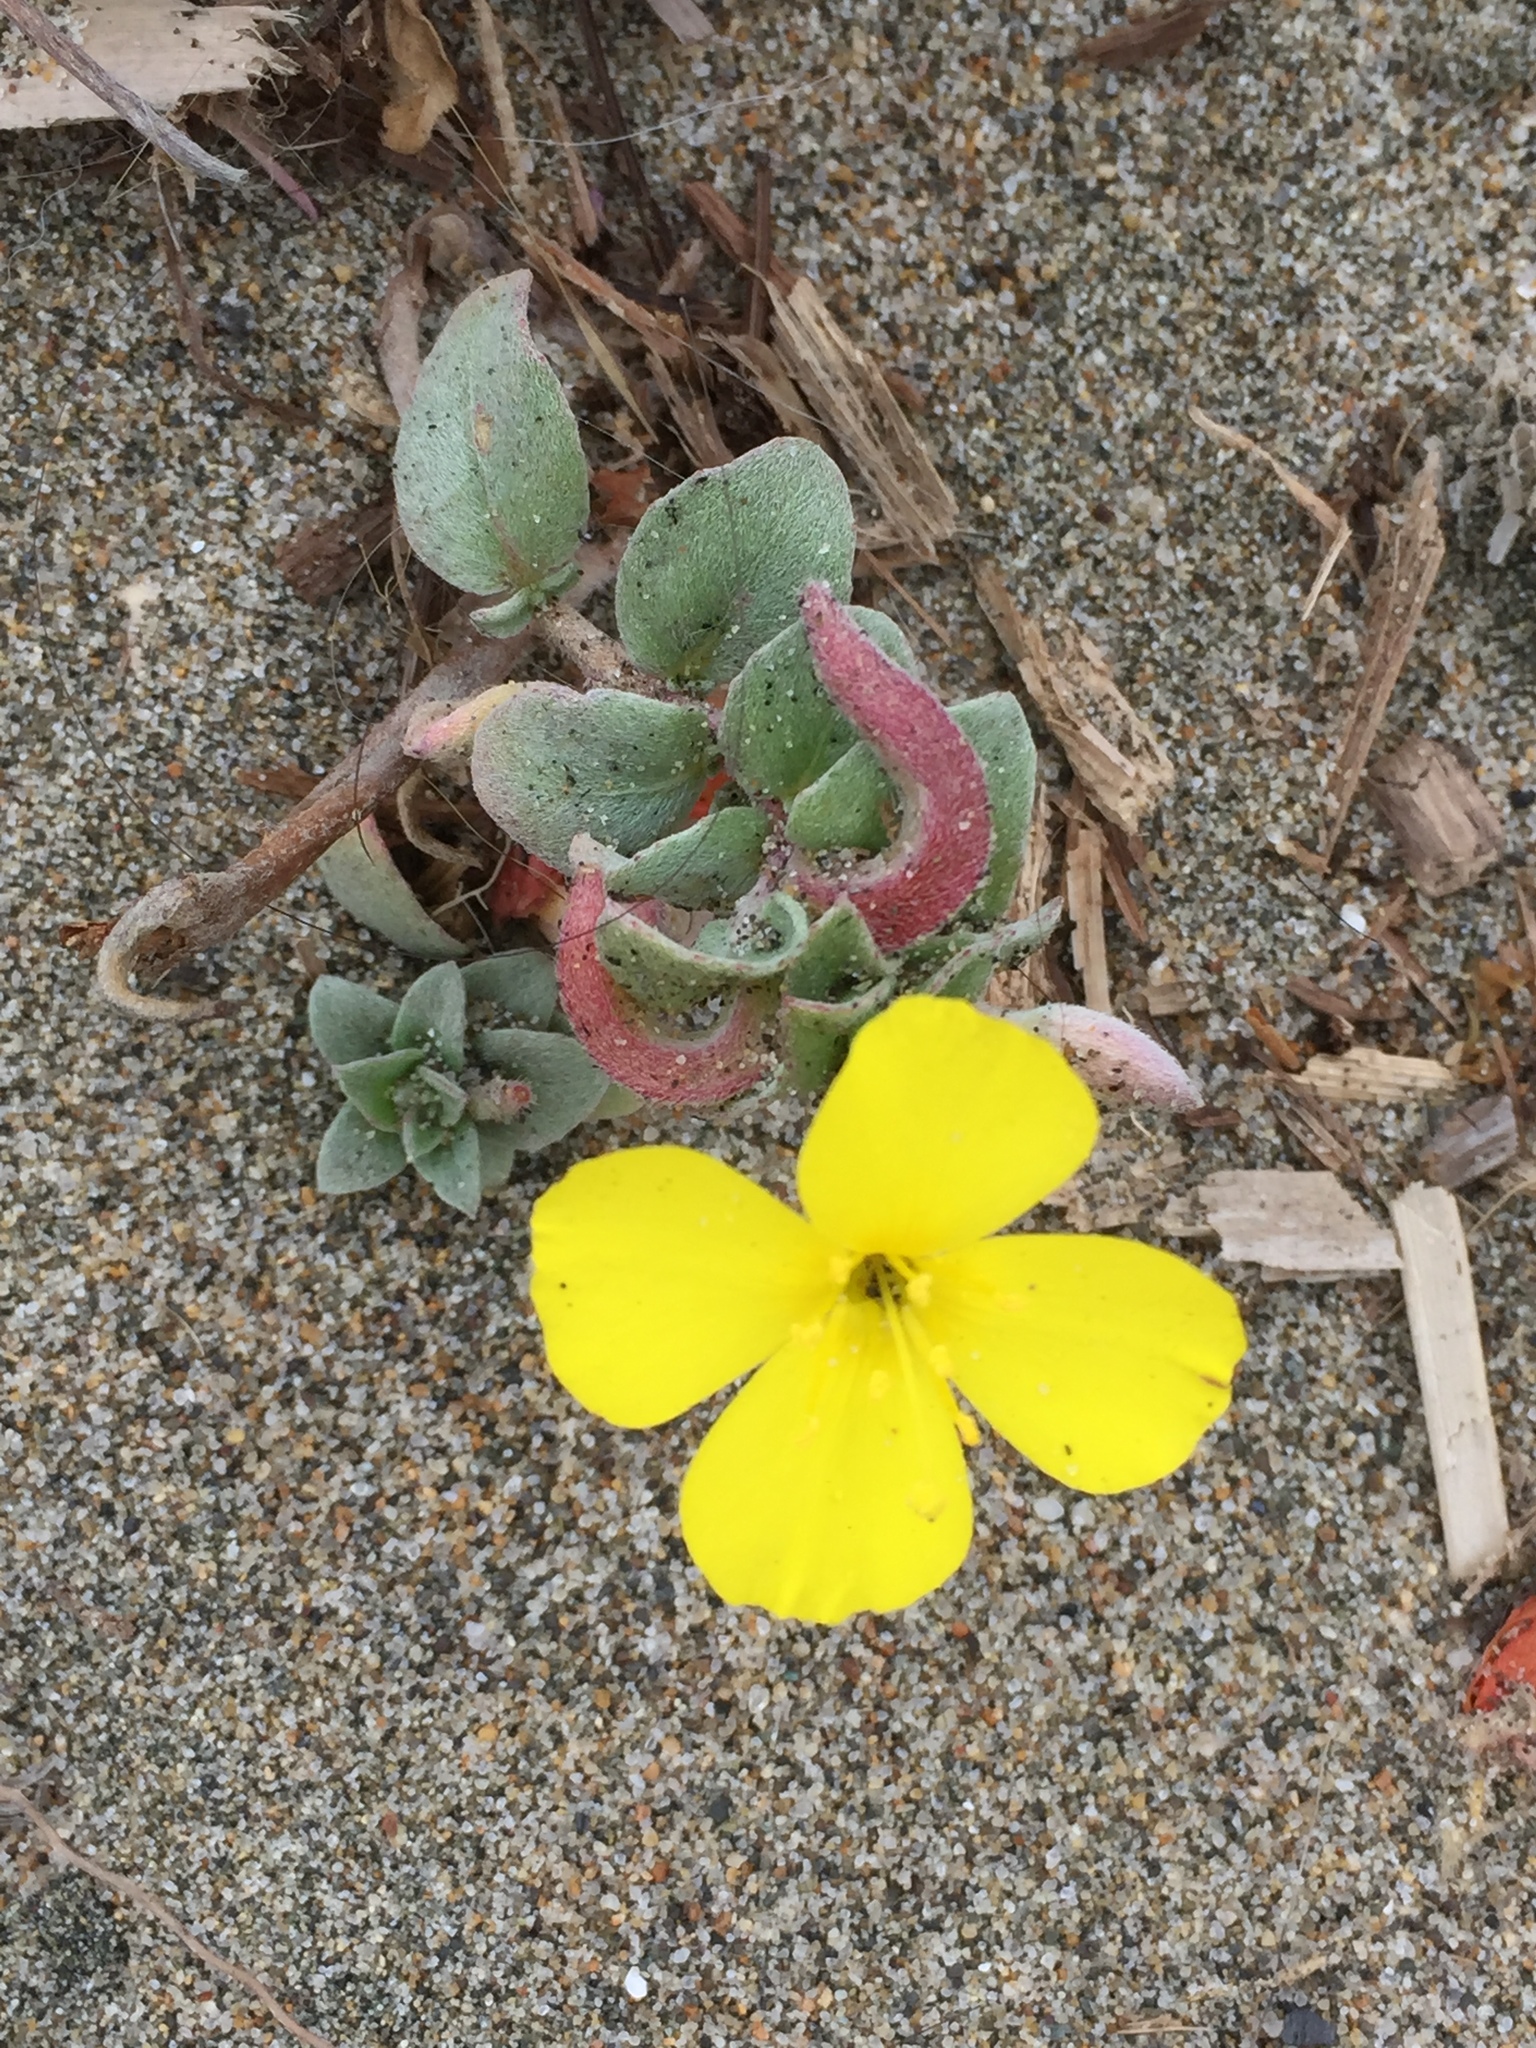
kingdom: Plantae
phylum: Tracheophyta
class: Magnoliopsida
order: Myrtales
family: Onagraceae
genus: Camissoniopsis
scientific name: Camissoniopsis cheiranthifolia
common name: Beach suncup
